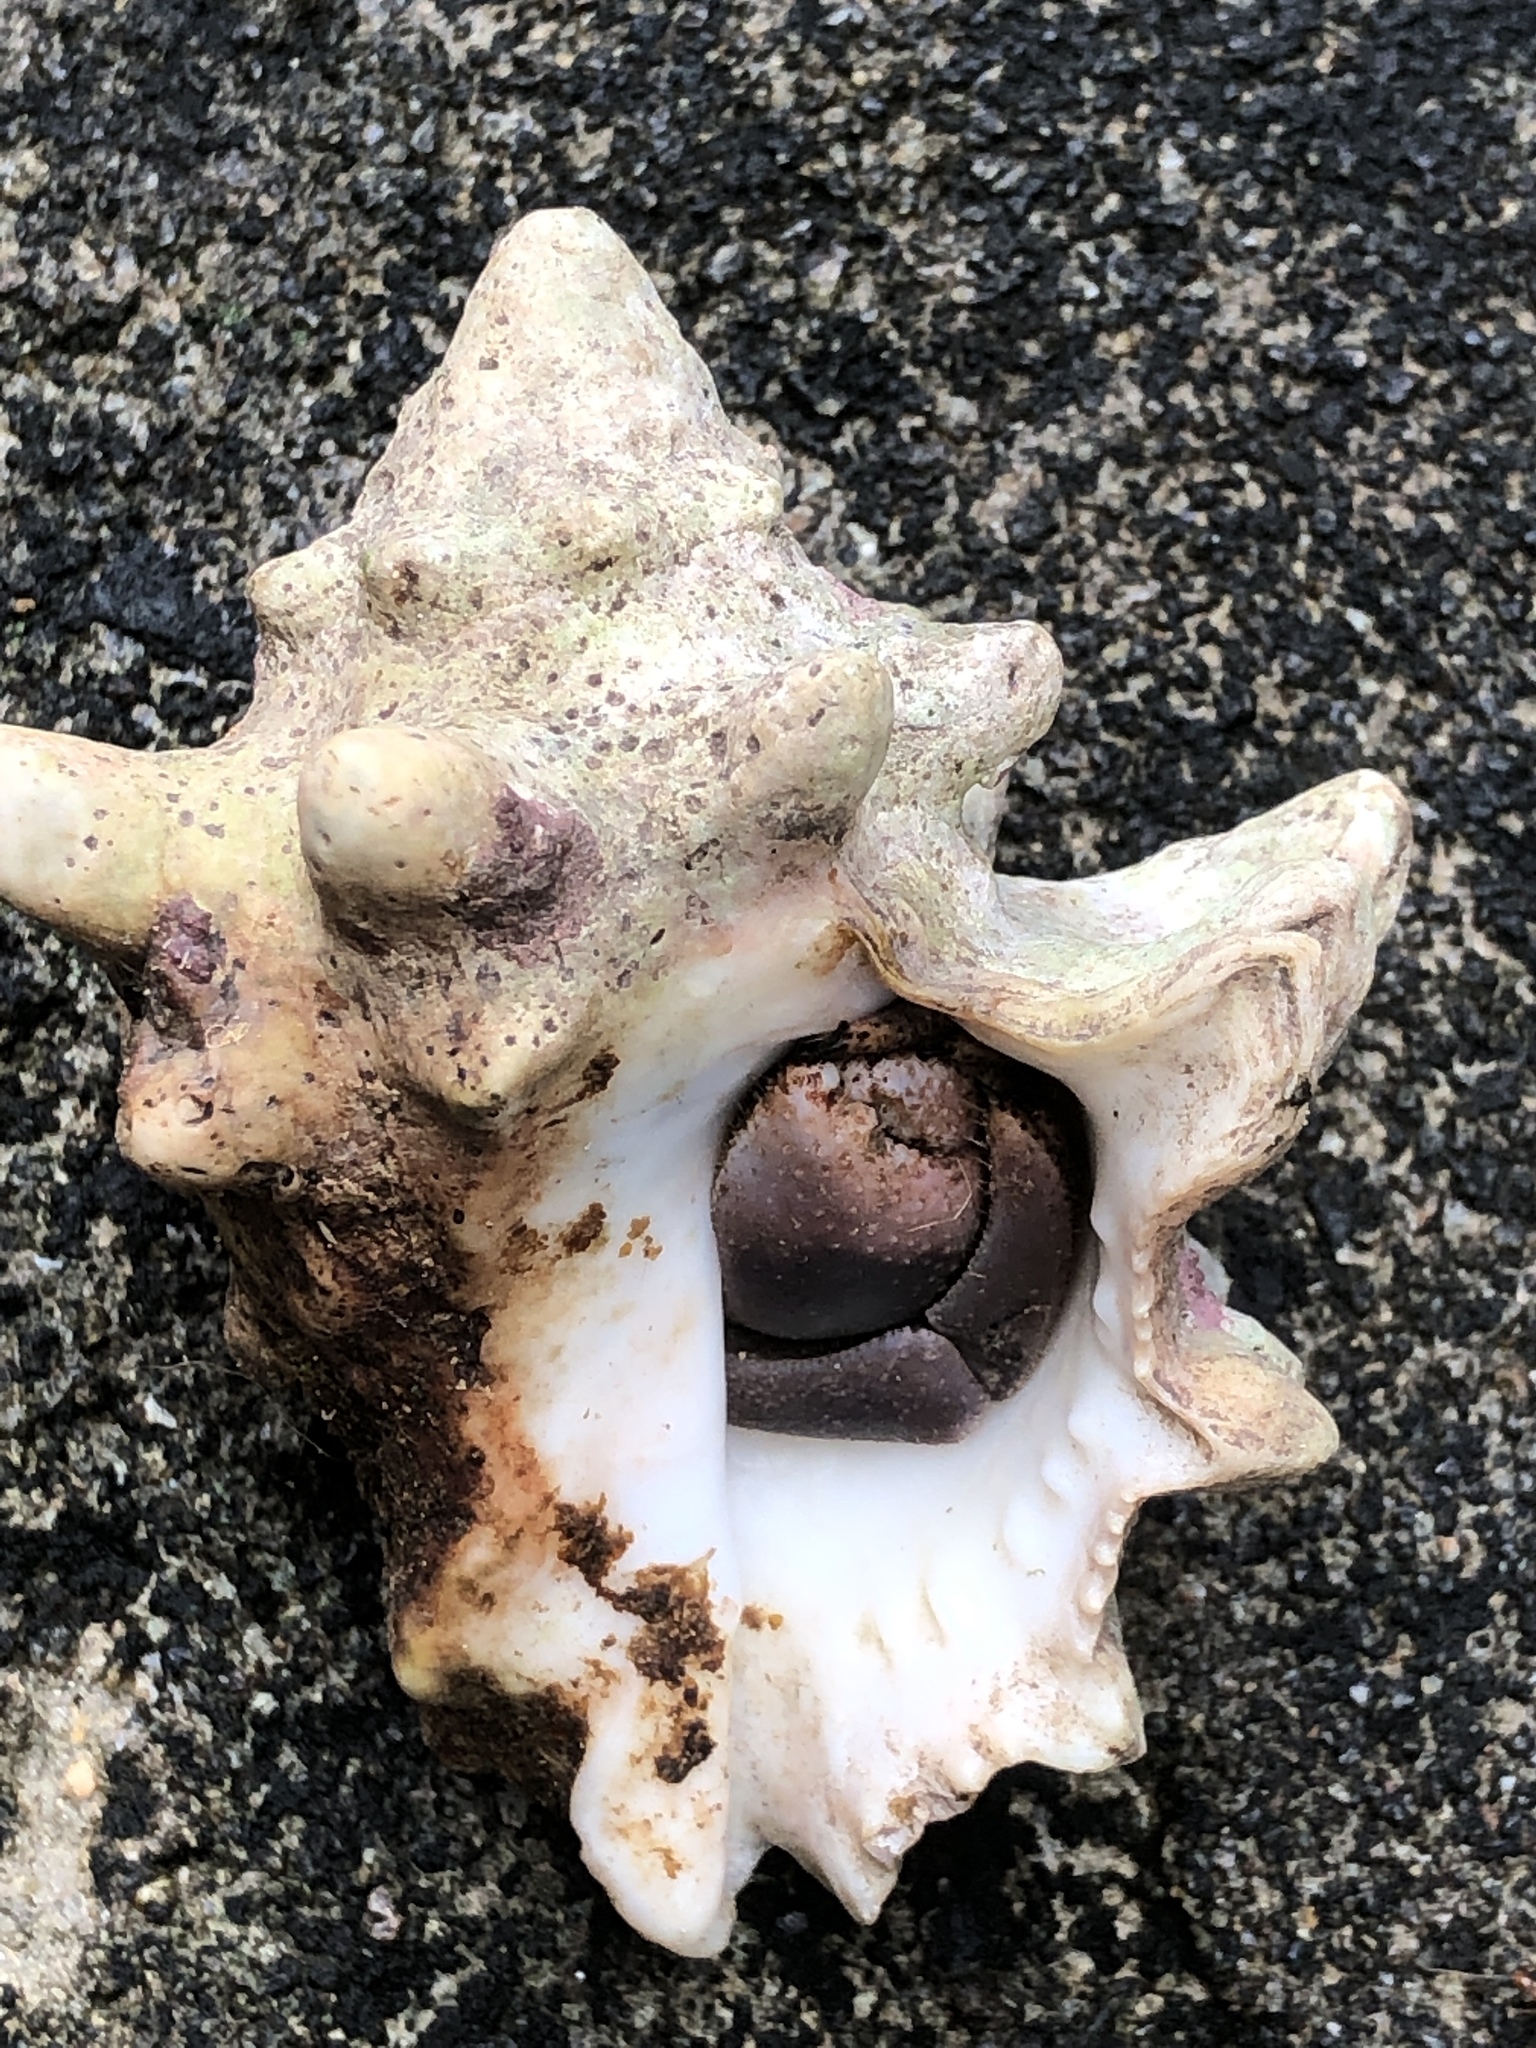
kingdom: Animalia
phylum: Mollusca
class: Gastropoda
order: Neogastropoda
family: Muricidae
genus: Mancinella
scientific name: Mancinella armigera
